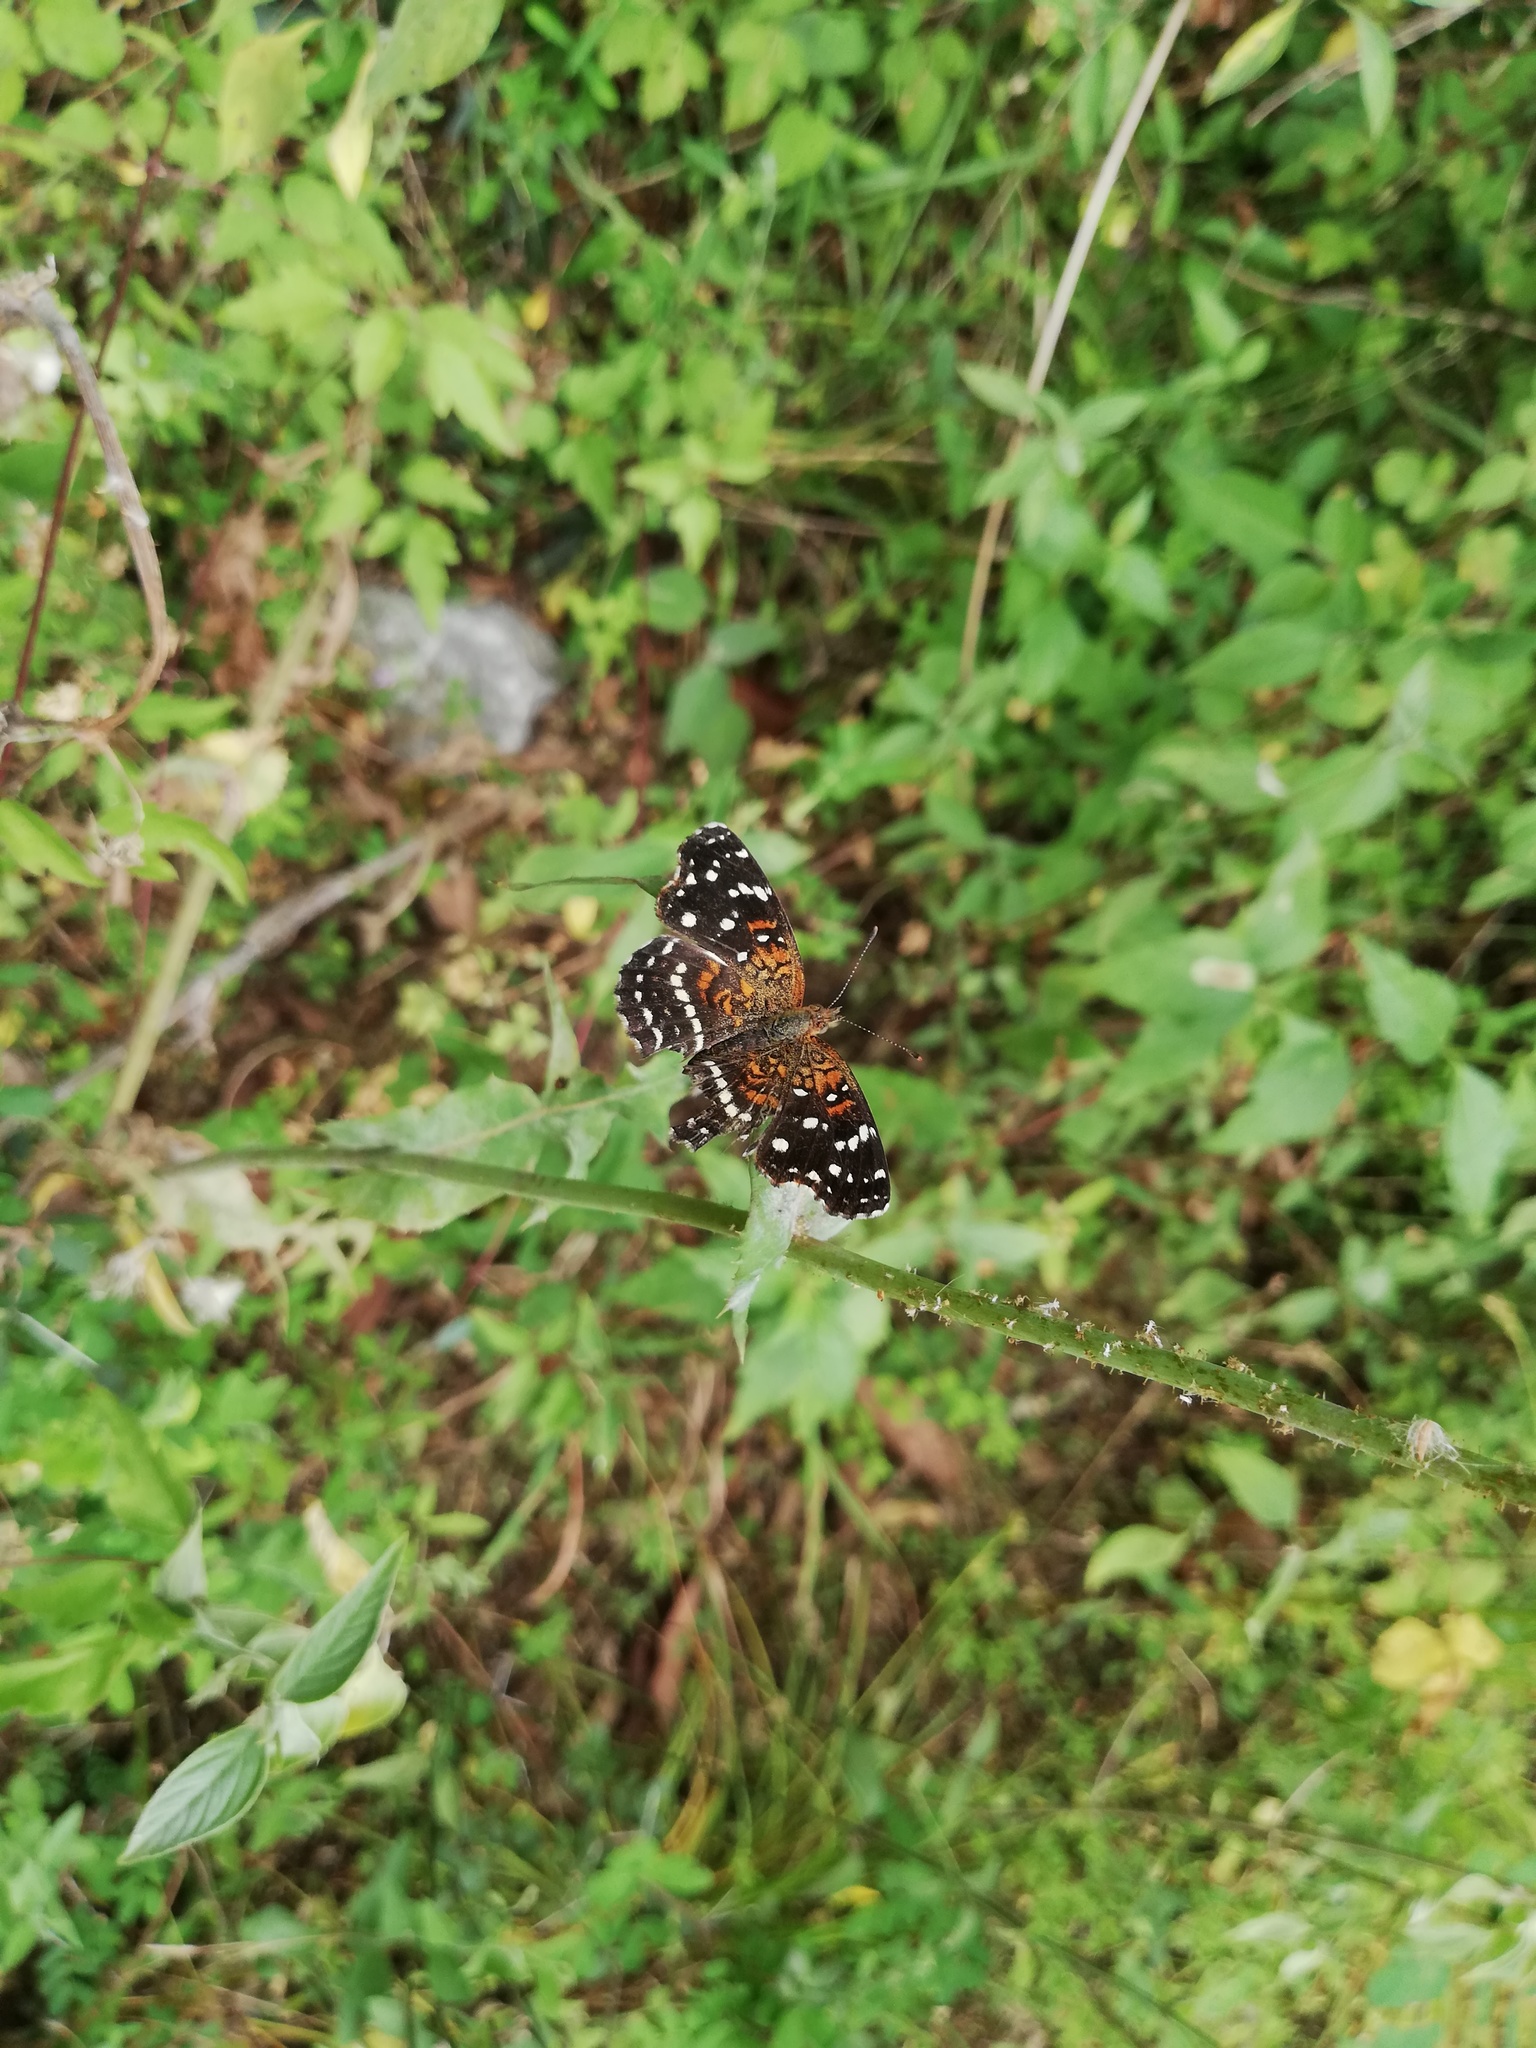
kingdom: Animalia
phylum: Arthropoda
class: Insecta
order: Lepidoptera
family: Nymphalidae
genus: Anthanassa
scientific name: Anthanassa texana
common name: Texan crescent
